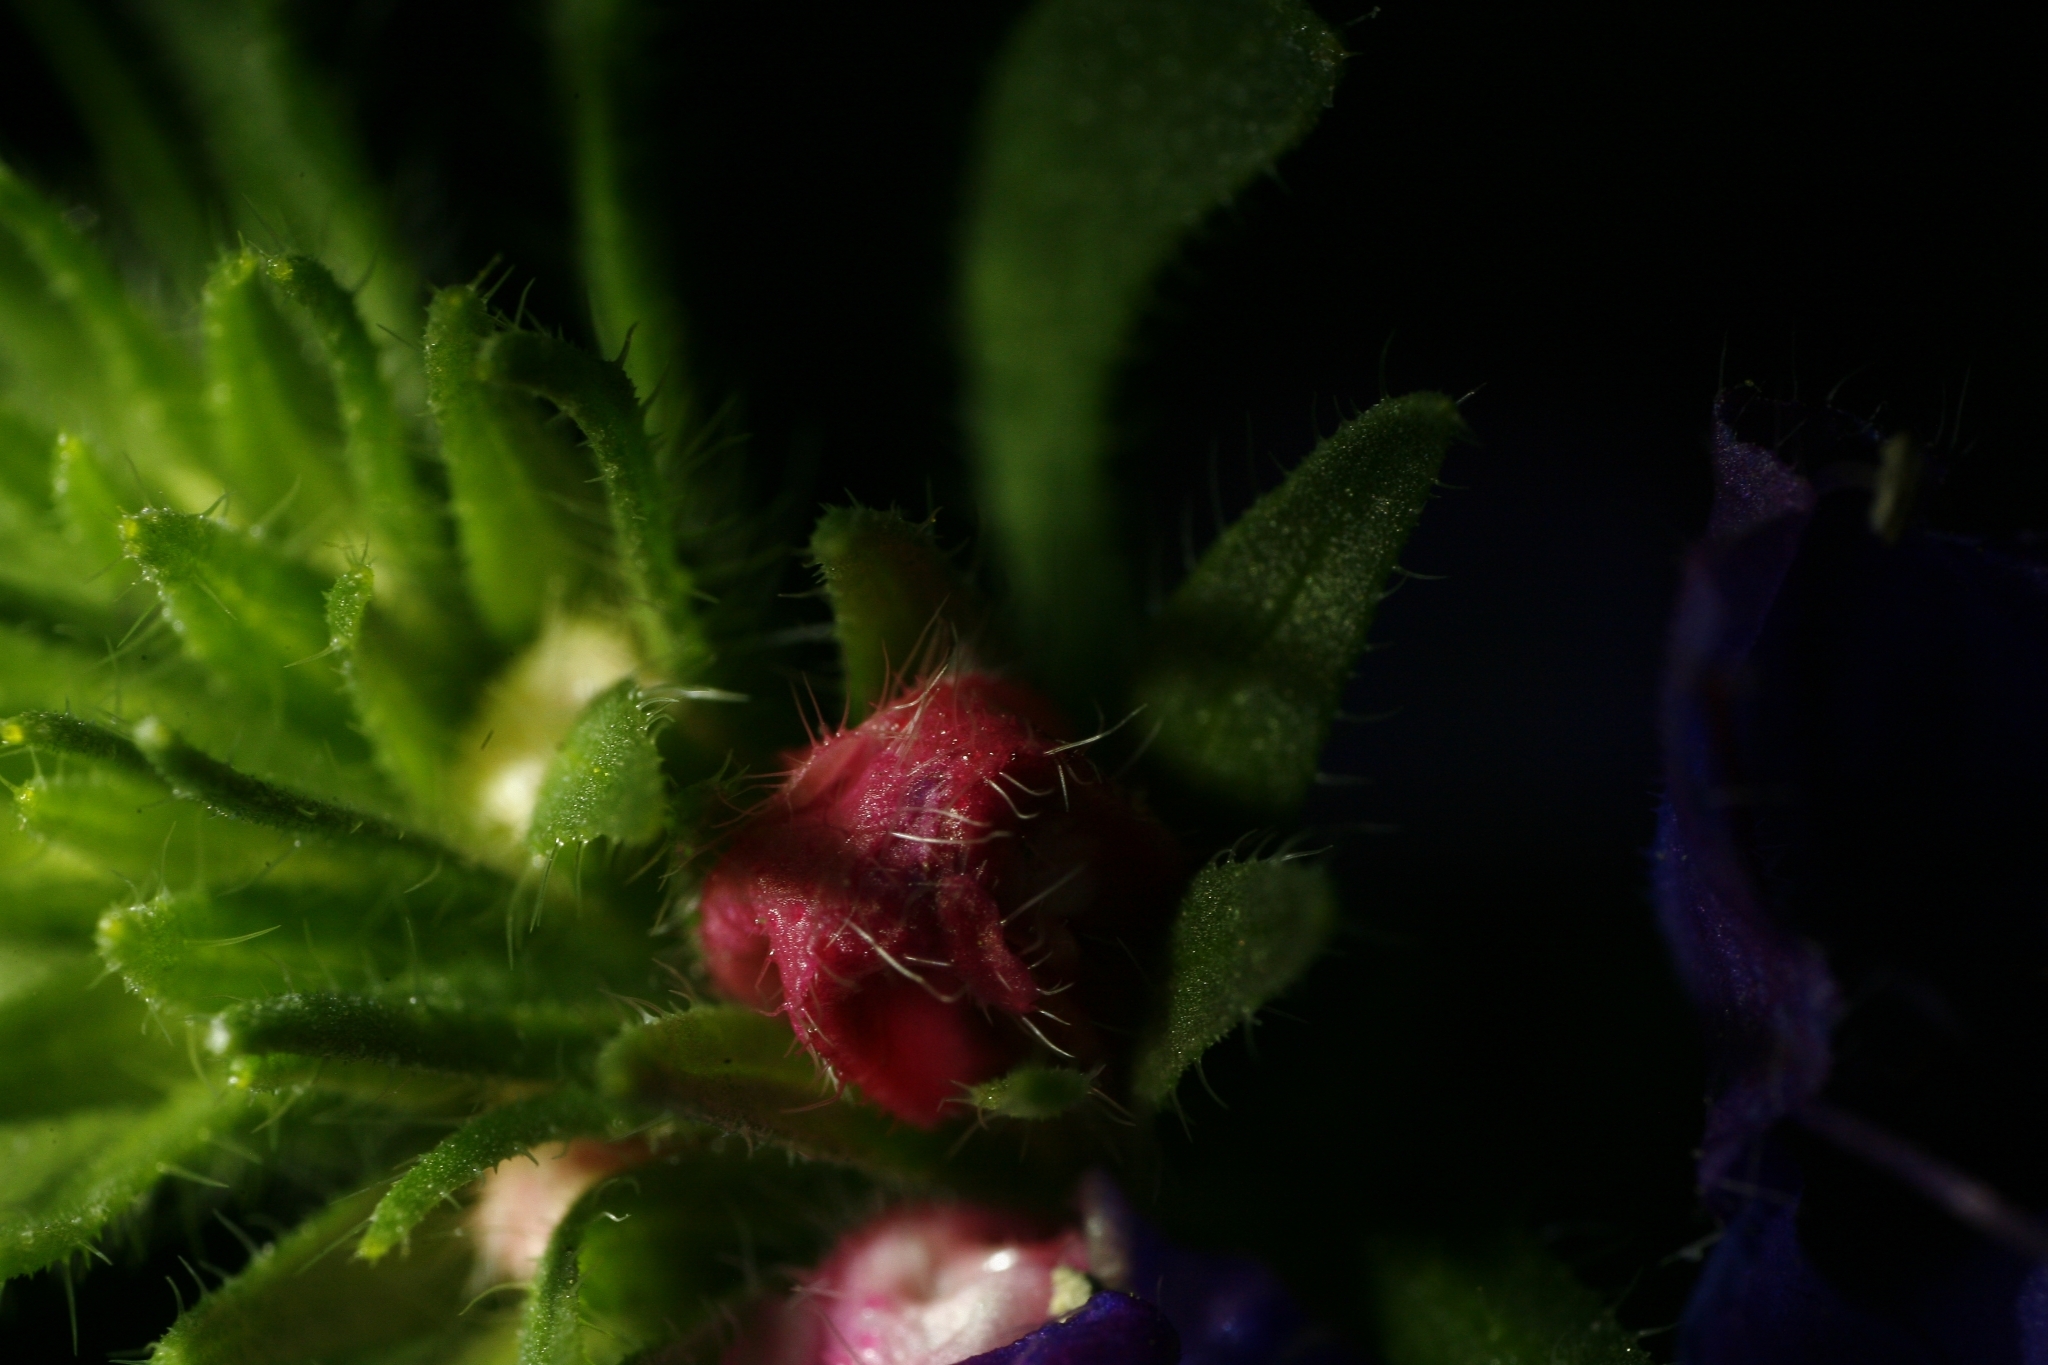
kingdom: Plantae
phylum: Tracheophyta
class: Magnoliopsida
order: Boraginales
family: Boraginaceae
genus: Echium
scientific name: Echium plantagineum
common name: Purple viper's-bugloss
